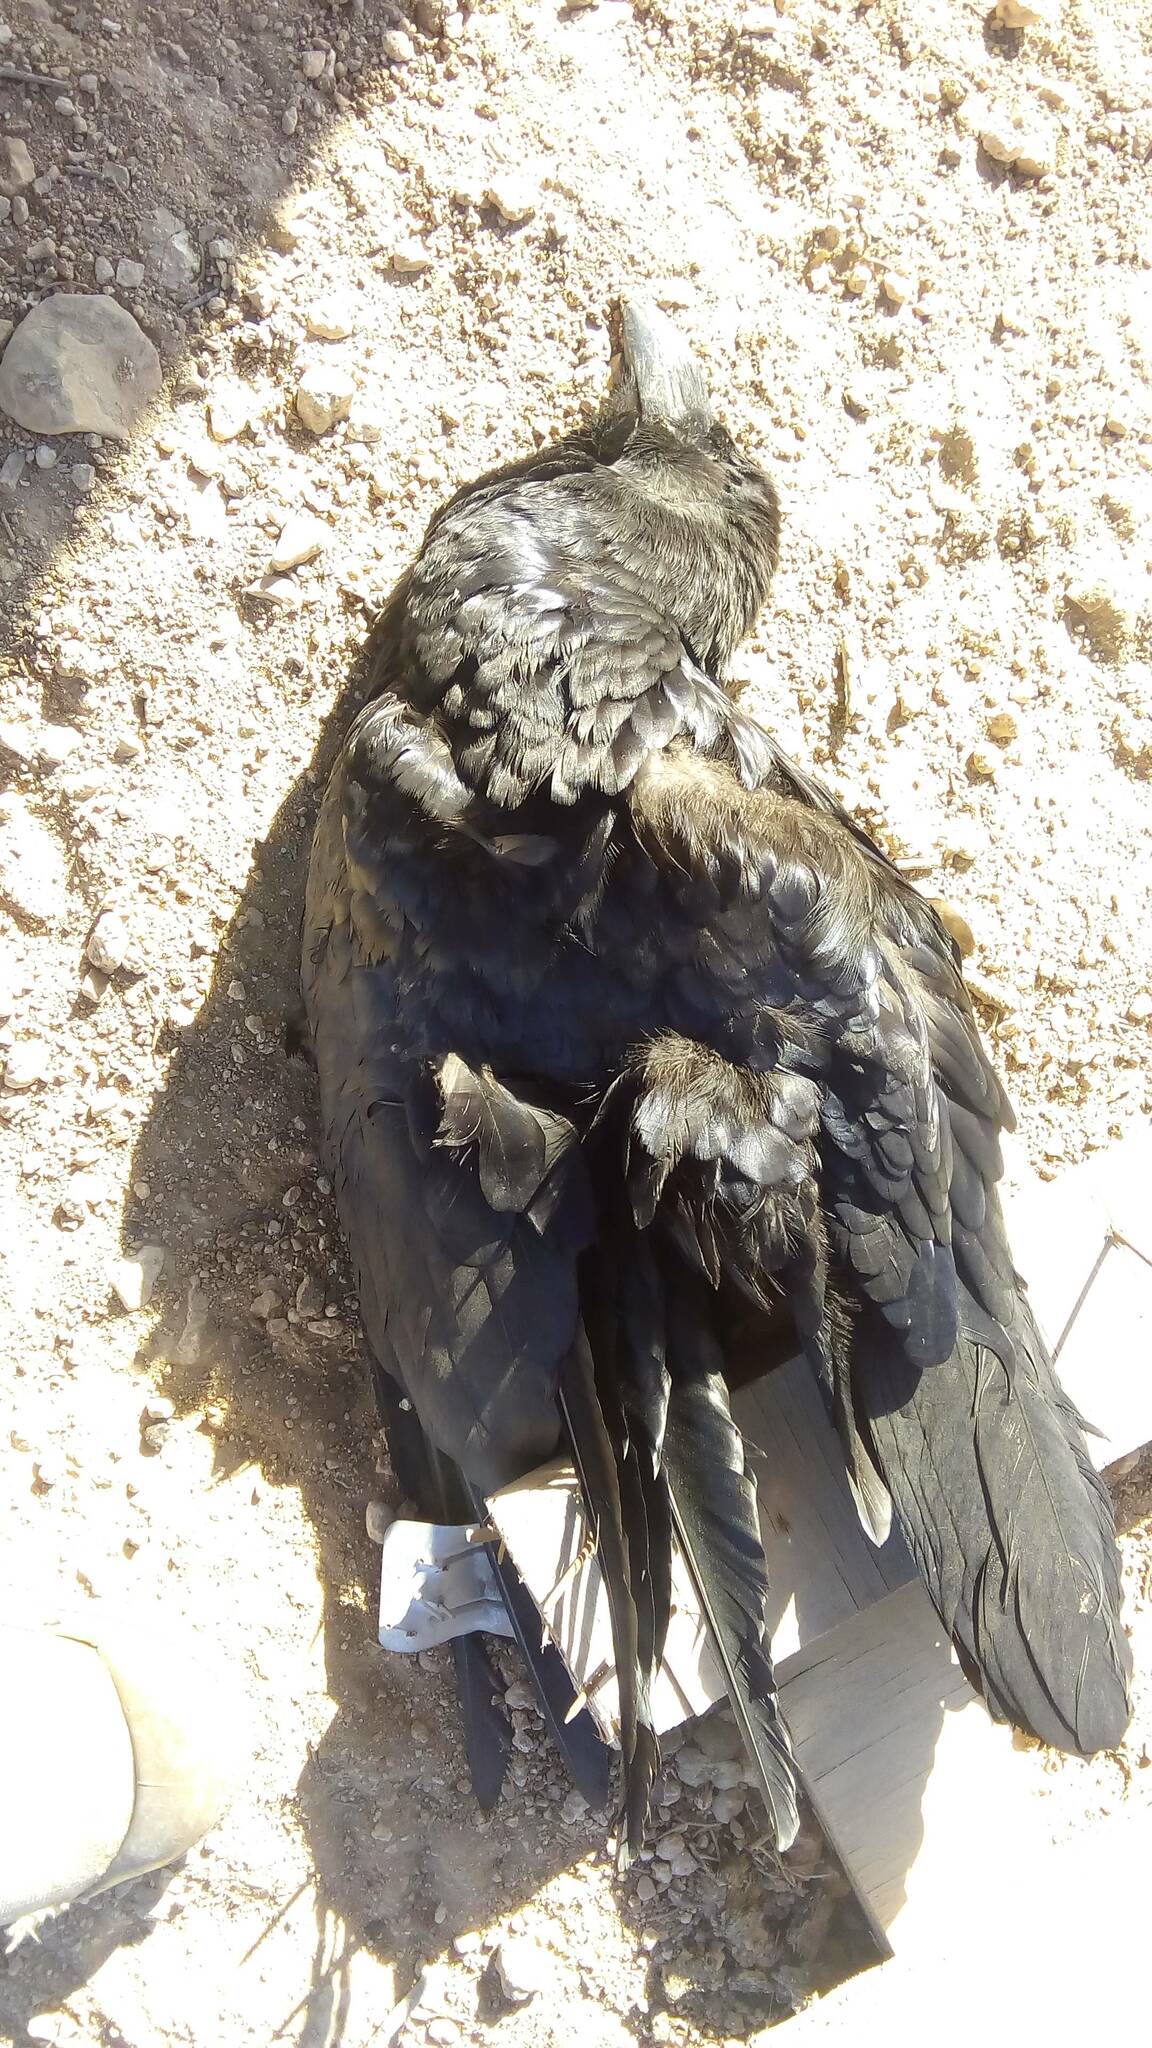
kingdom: Animalia
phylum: Chordata
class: Aves
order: Passeriformes
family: Corvidae
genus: Corvus
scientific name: Corvus corax
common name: Common raven
